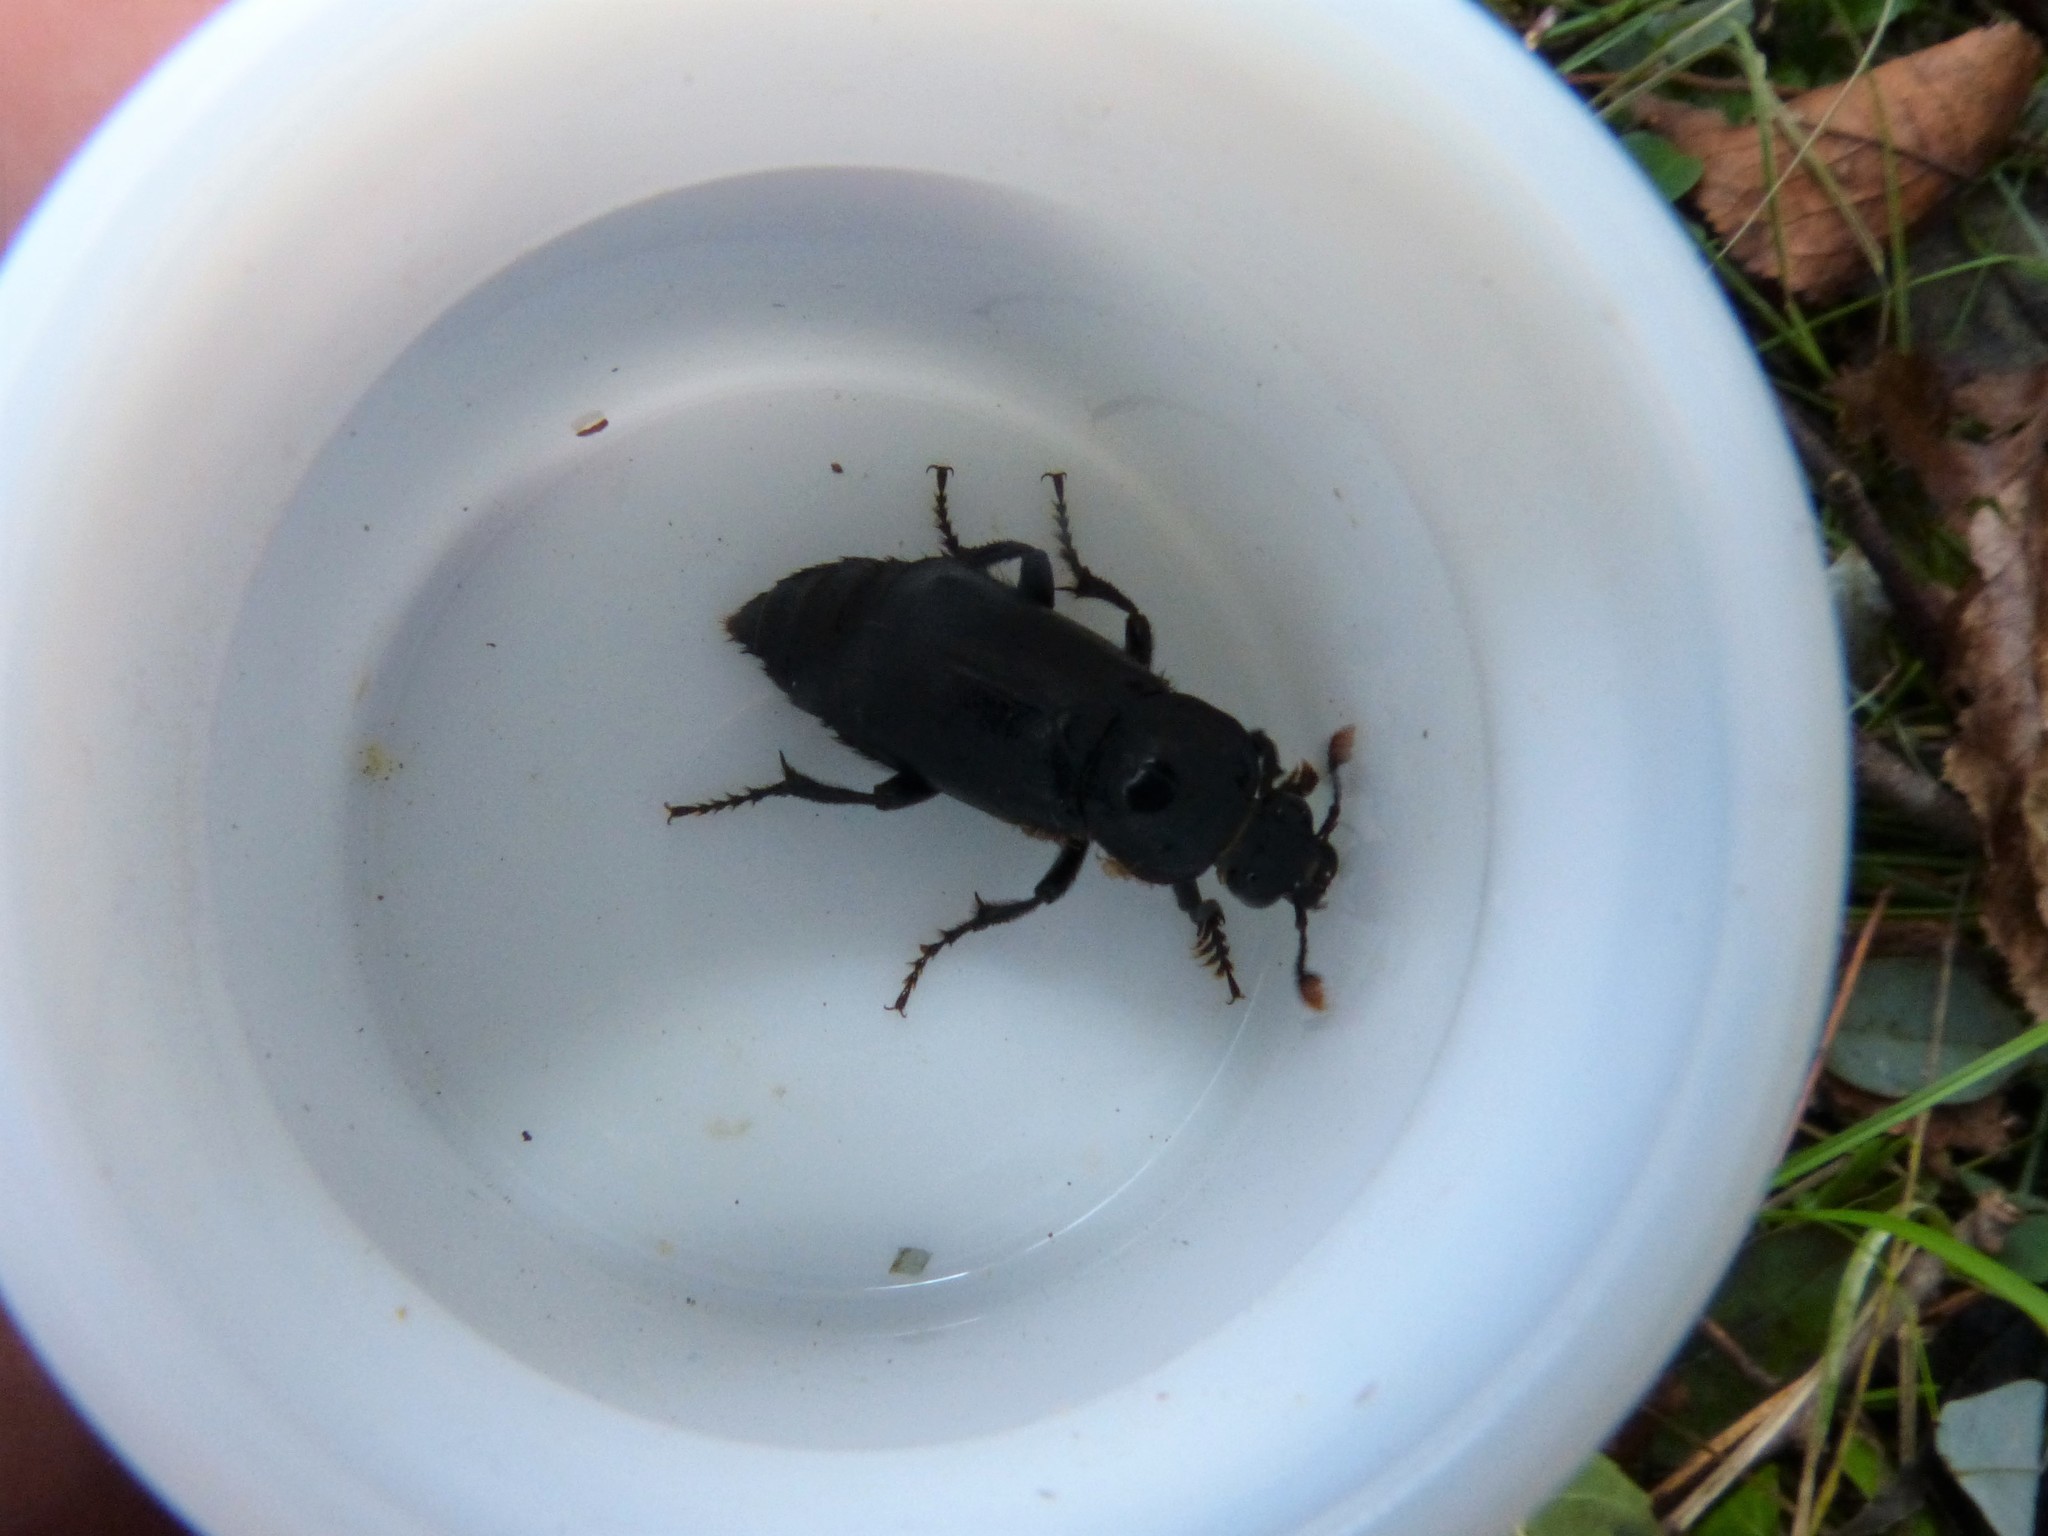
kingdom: Animalia
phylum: Arthropoda
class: Insecta
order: Coleoptera
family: Staphylinidae
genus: Nicrophorus
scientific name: Nicrophorus humator
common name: Black sexton beetle
